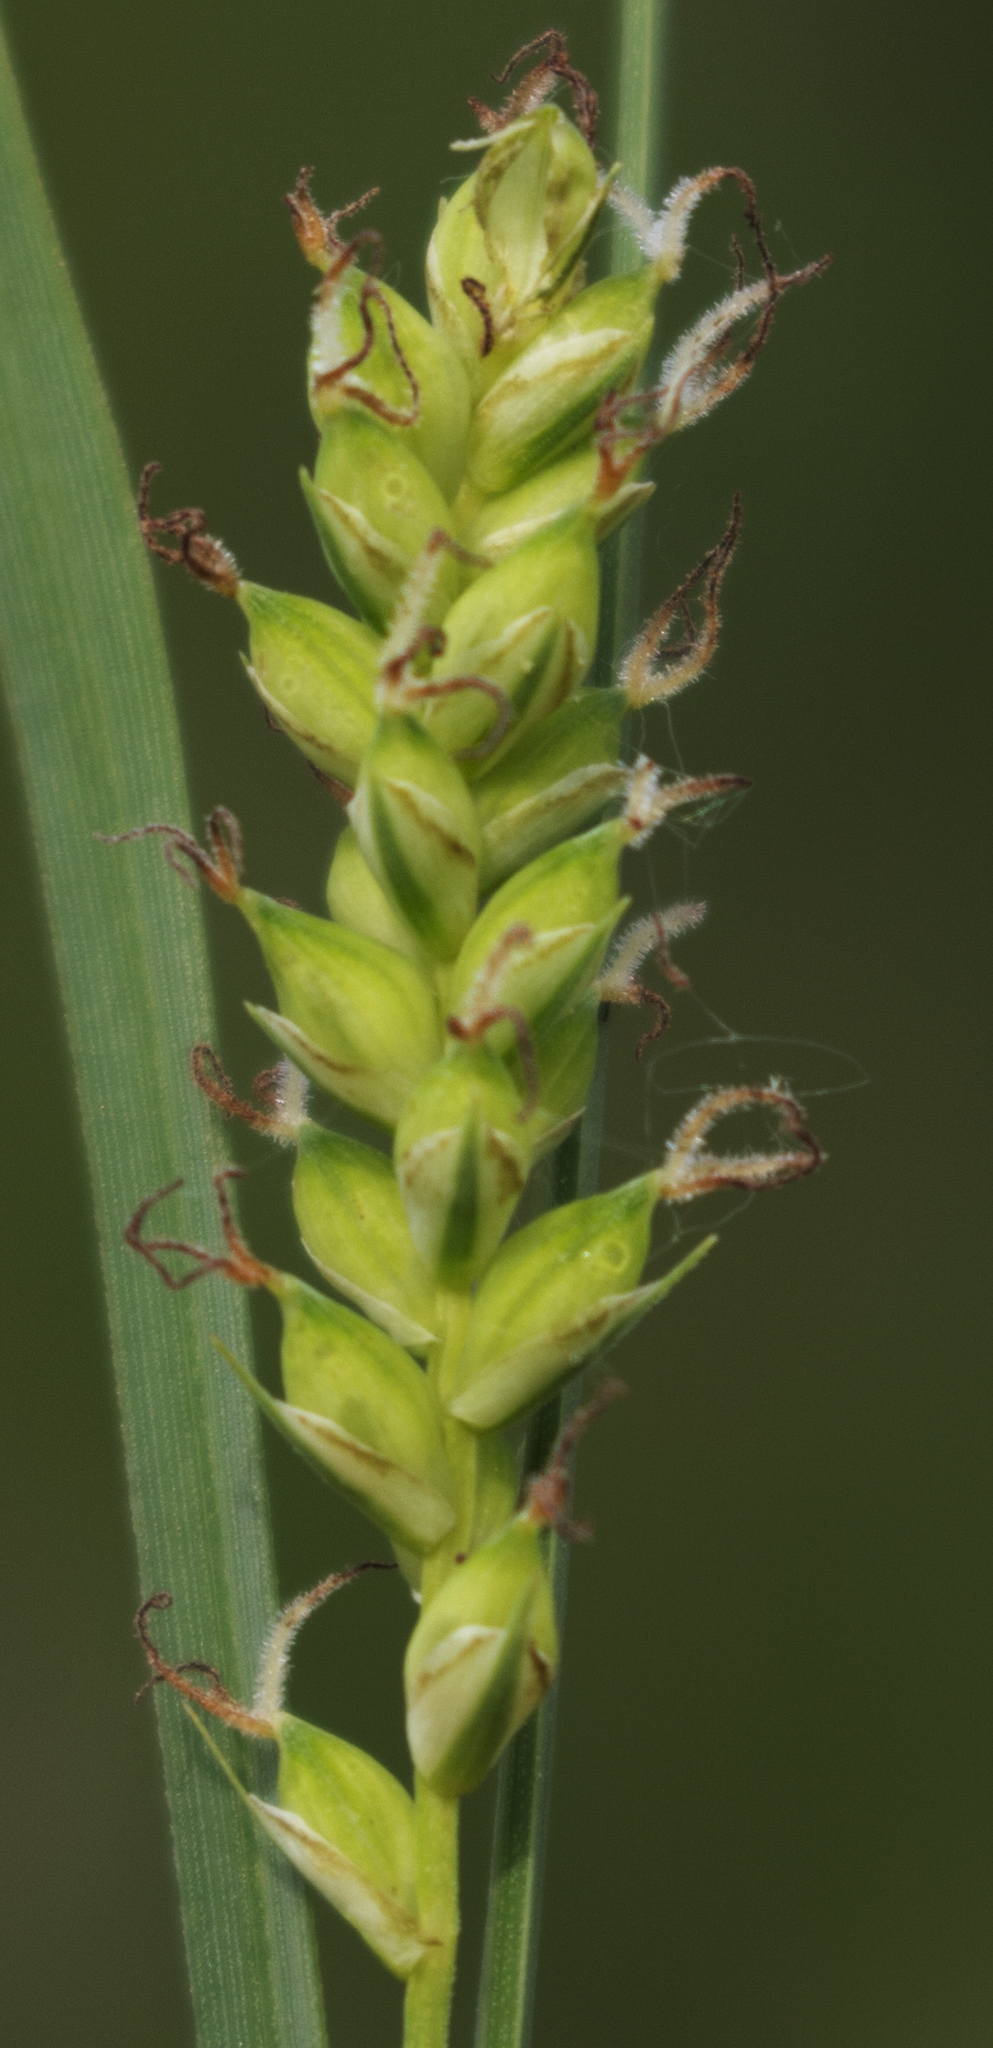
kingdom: Plantae
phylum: Tracheophyta
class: Liliopsida
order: Poales
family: Cyperaceae
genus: Carex
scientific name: Carex tetanica
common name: Rigid sedge
